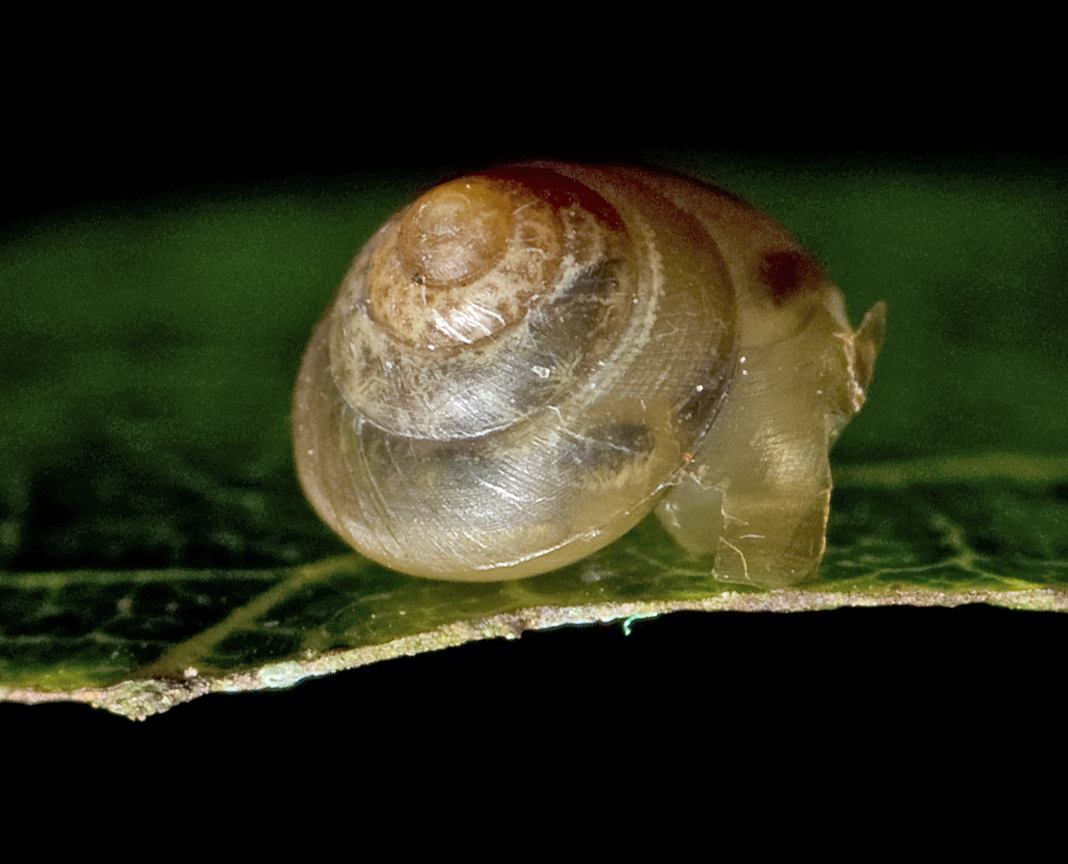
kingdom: Animalia
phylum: Mollusca
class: Gastropoda
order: Stylommatophora
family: Euconulidae
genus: Coneuplecta
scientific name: Coneuplecta calculosa
